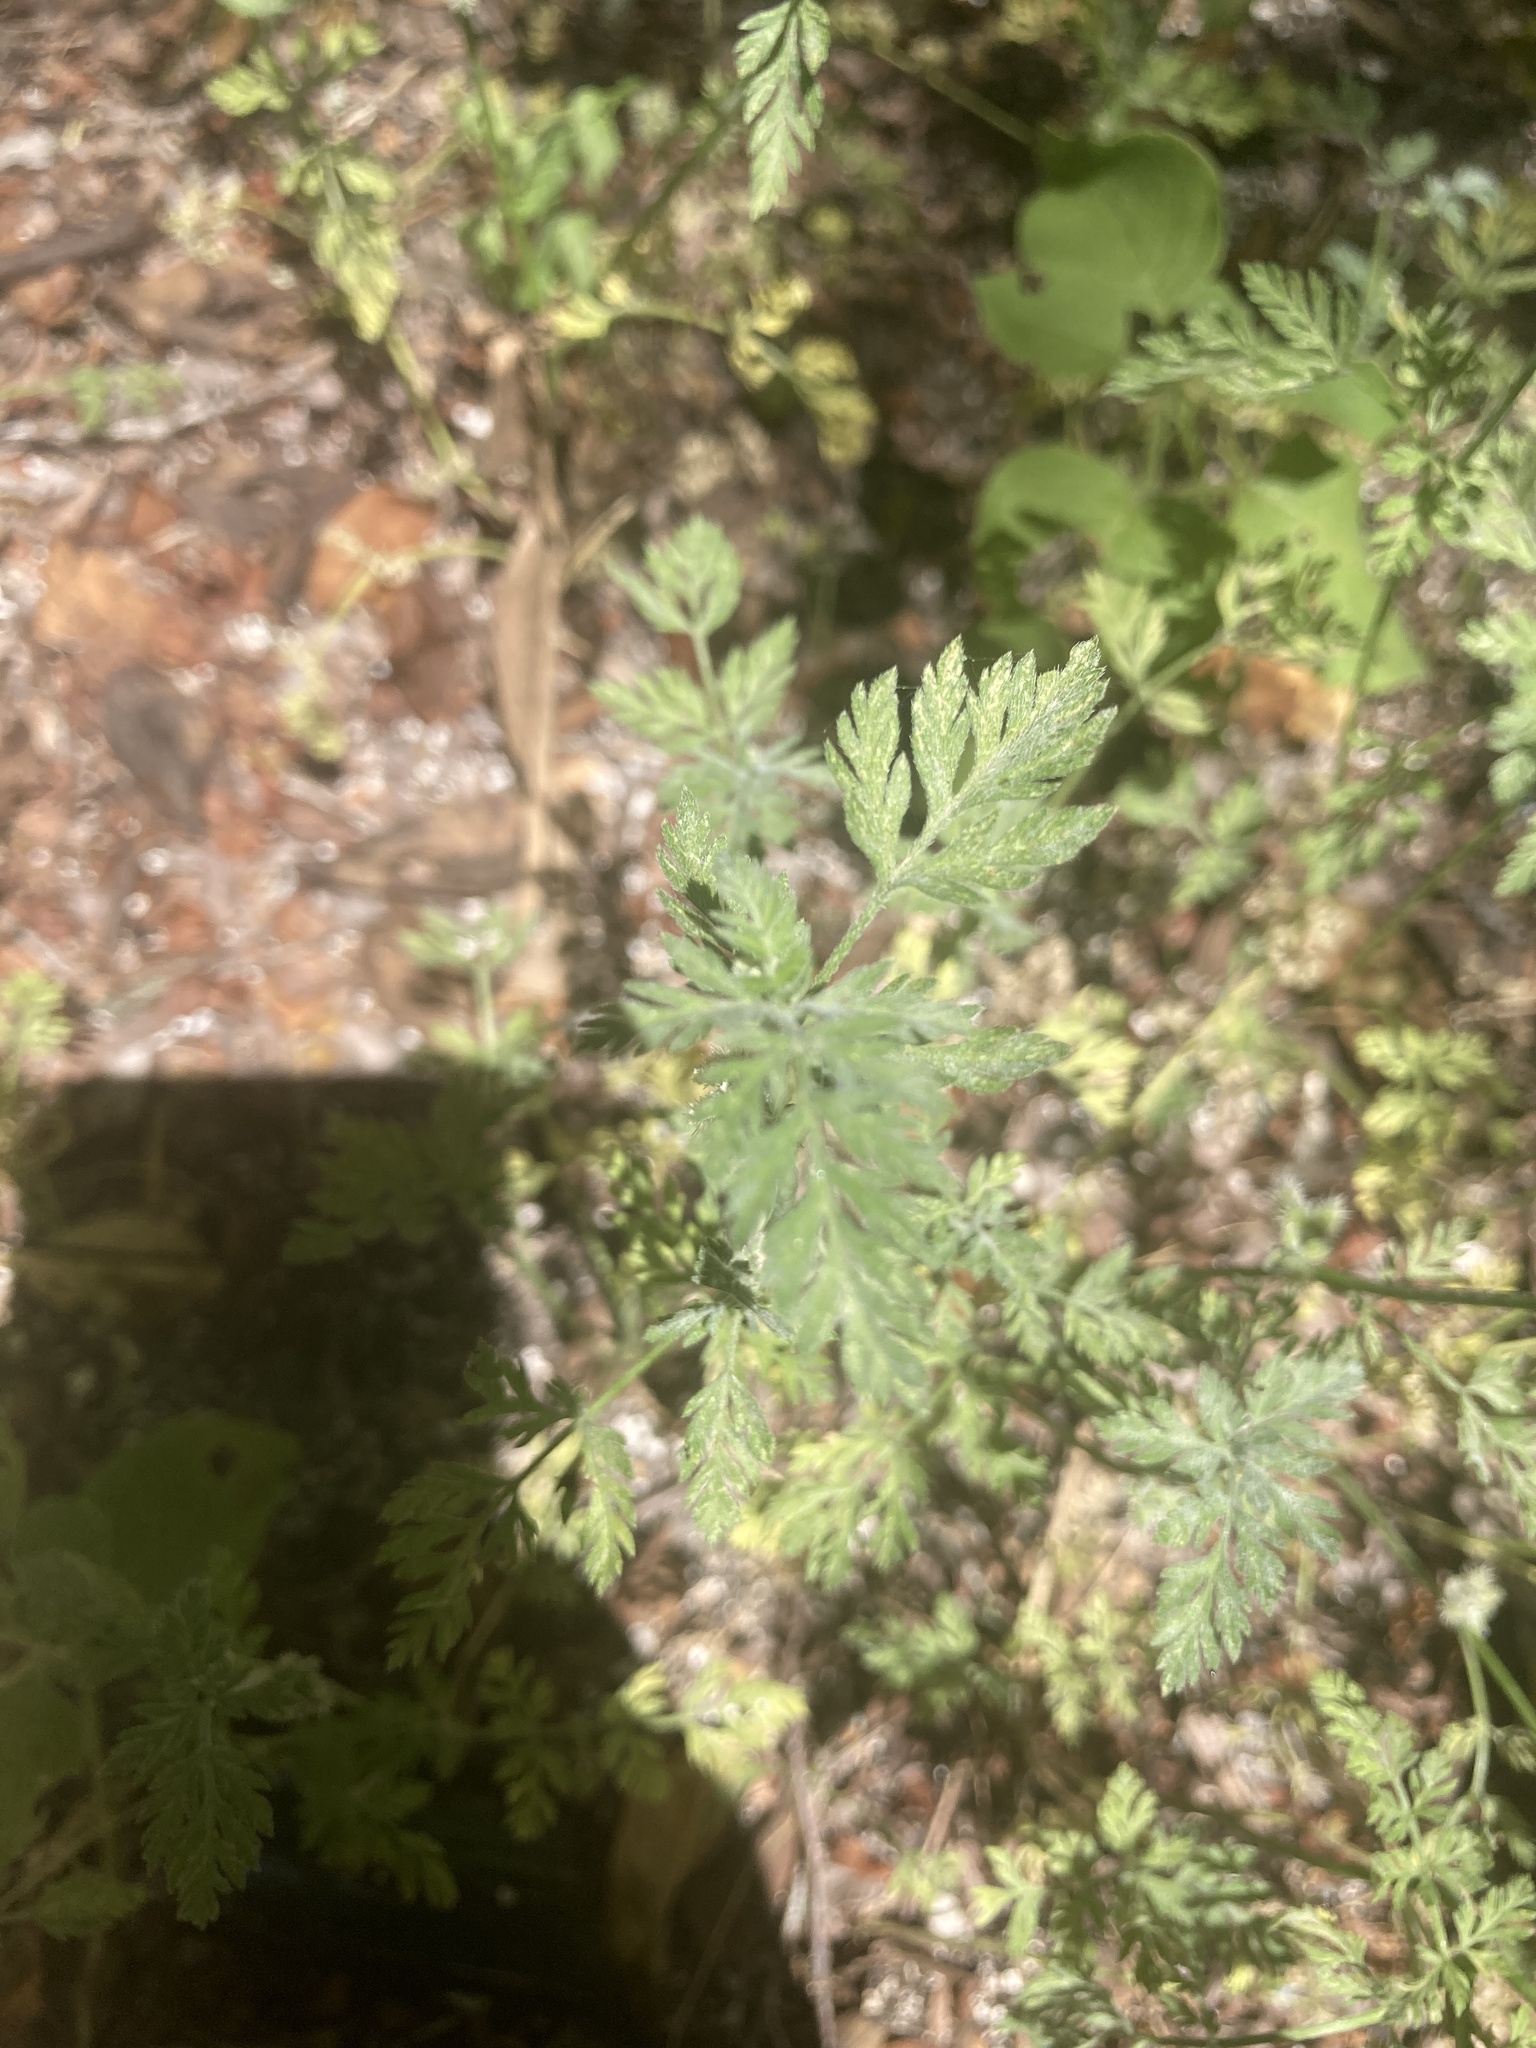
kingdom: Plantae
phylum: Tracheophyta
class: Magnoliopsida
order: Apiales
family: Apiaceae
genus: Torilis
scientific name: Torilis nodosa
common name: Knotted hedge-parsley
